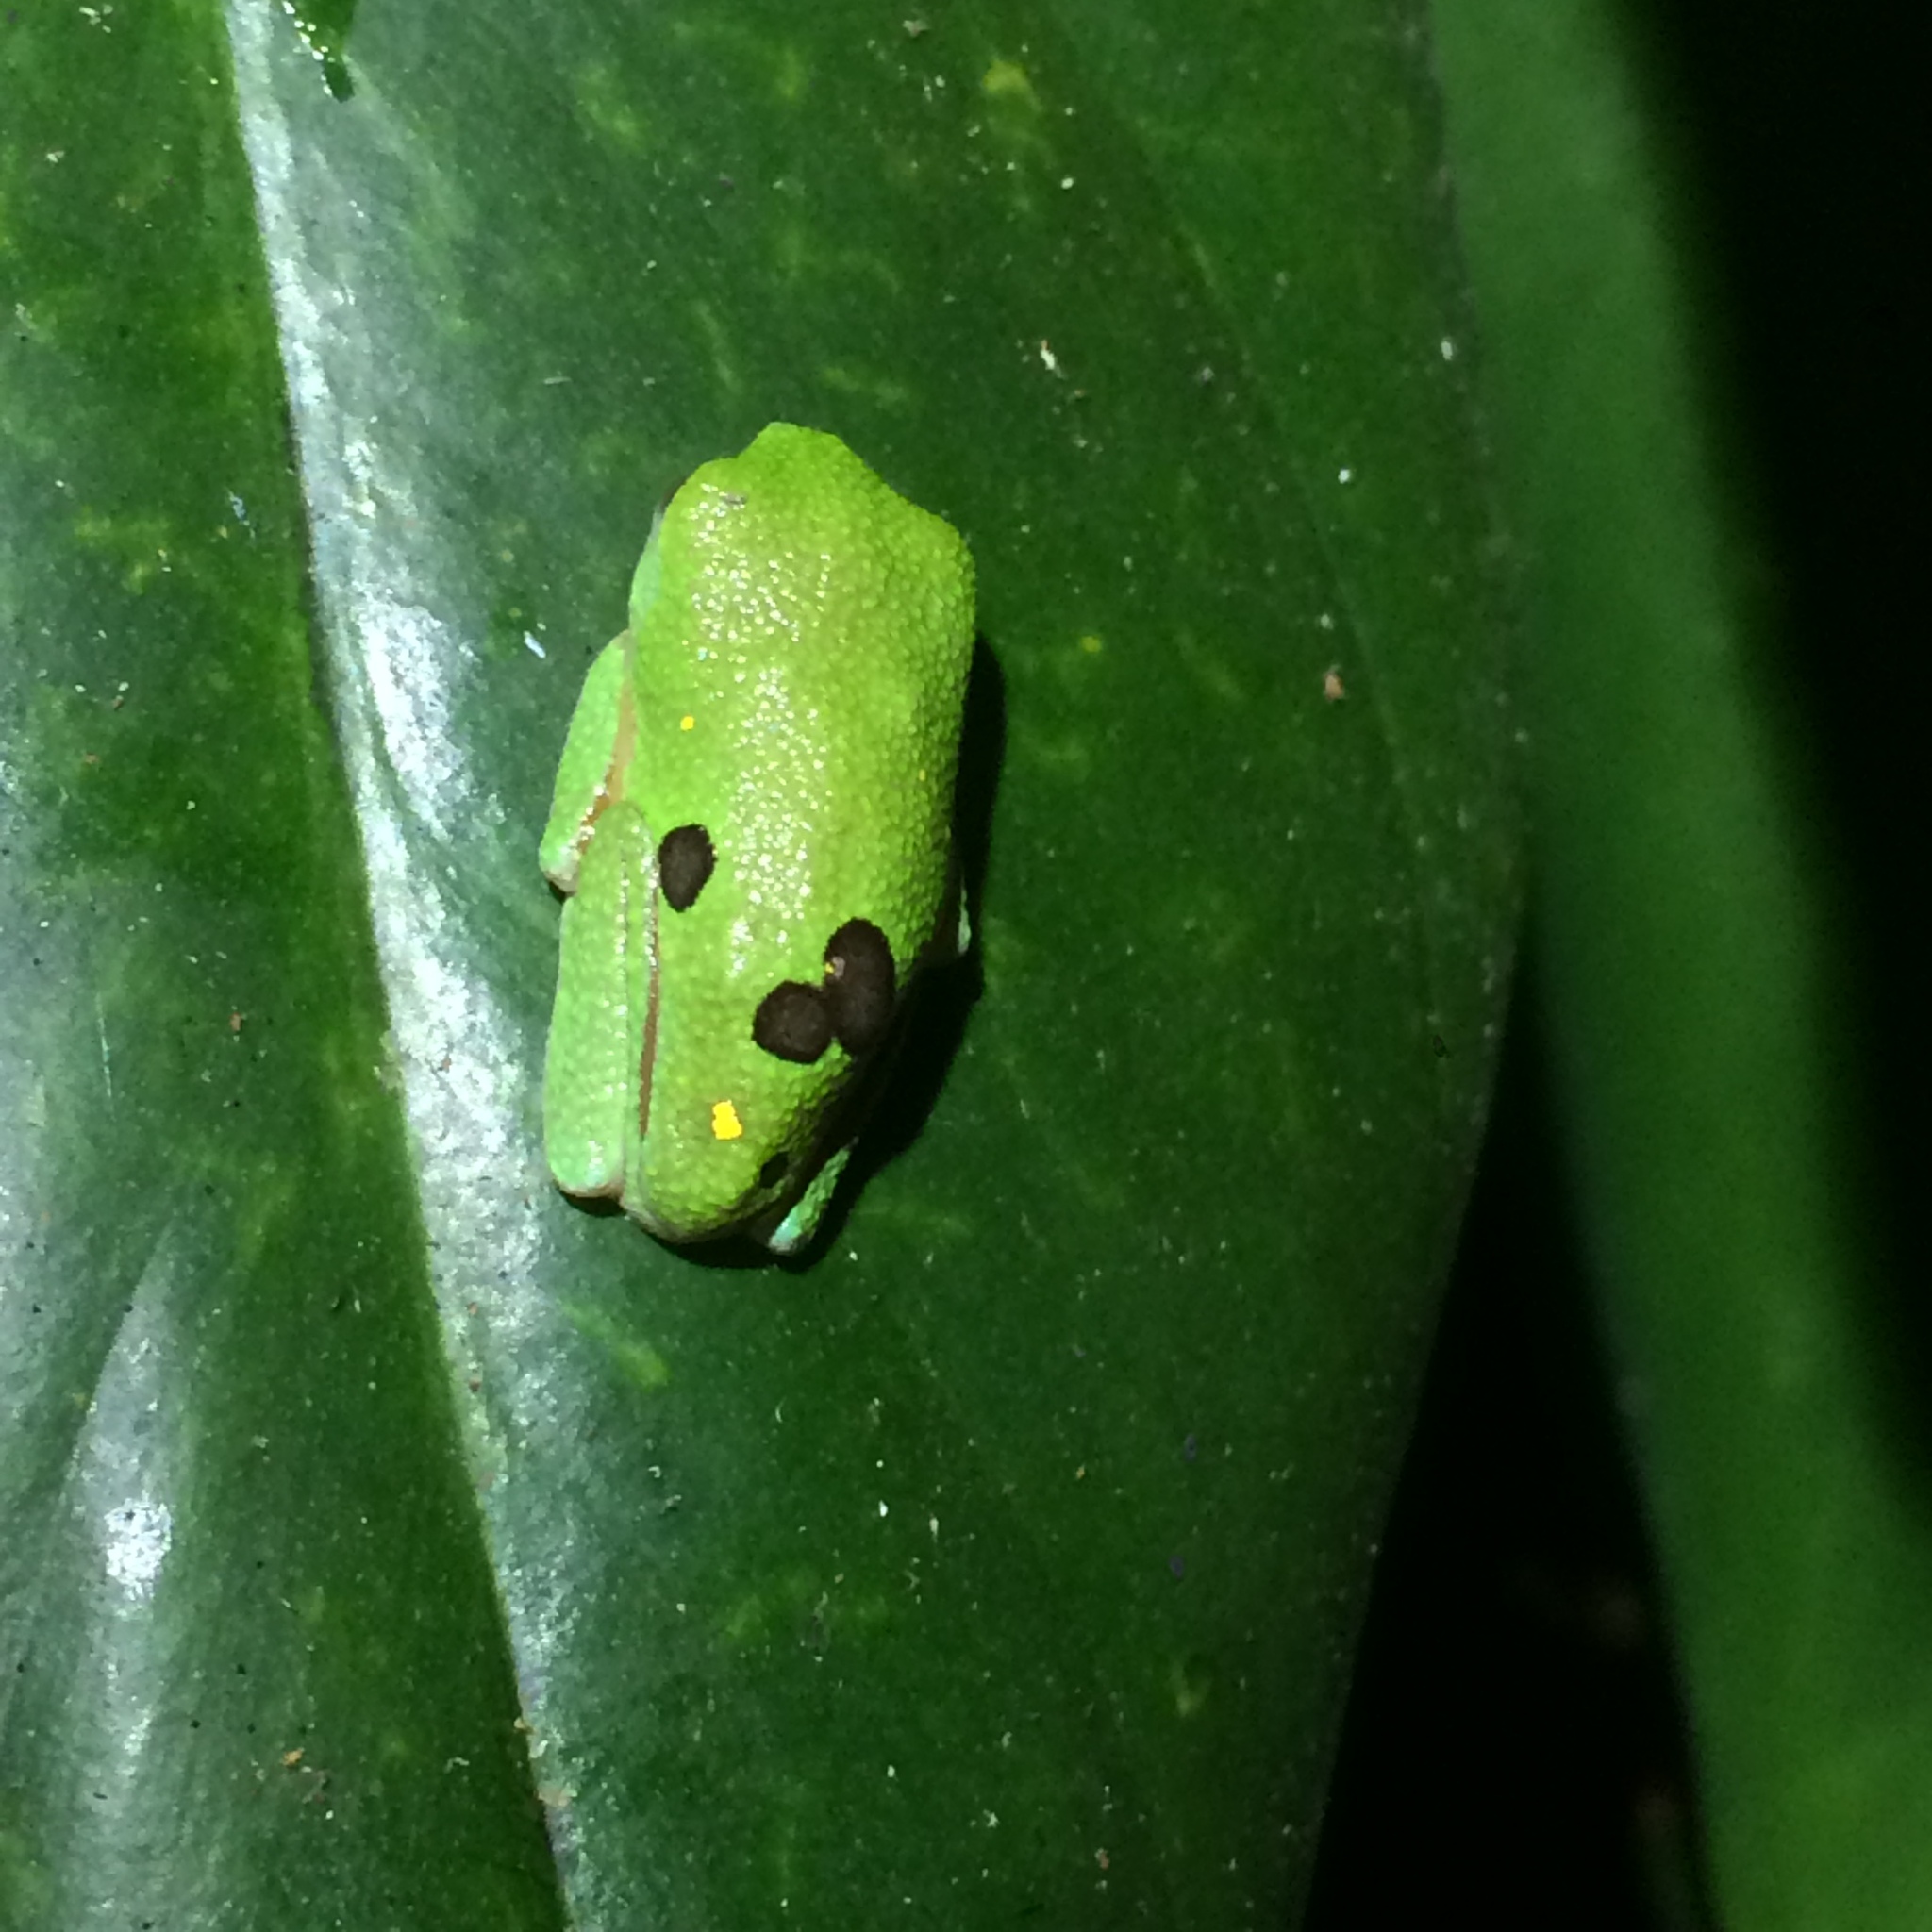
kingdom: Animalia
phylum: Chordata
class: Amphibia
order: Anura
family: Phyllomedusidae
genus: Hylomantis
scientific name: Hylomantis granulosa
